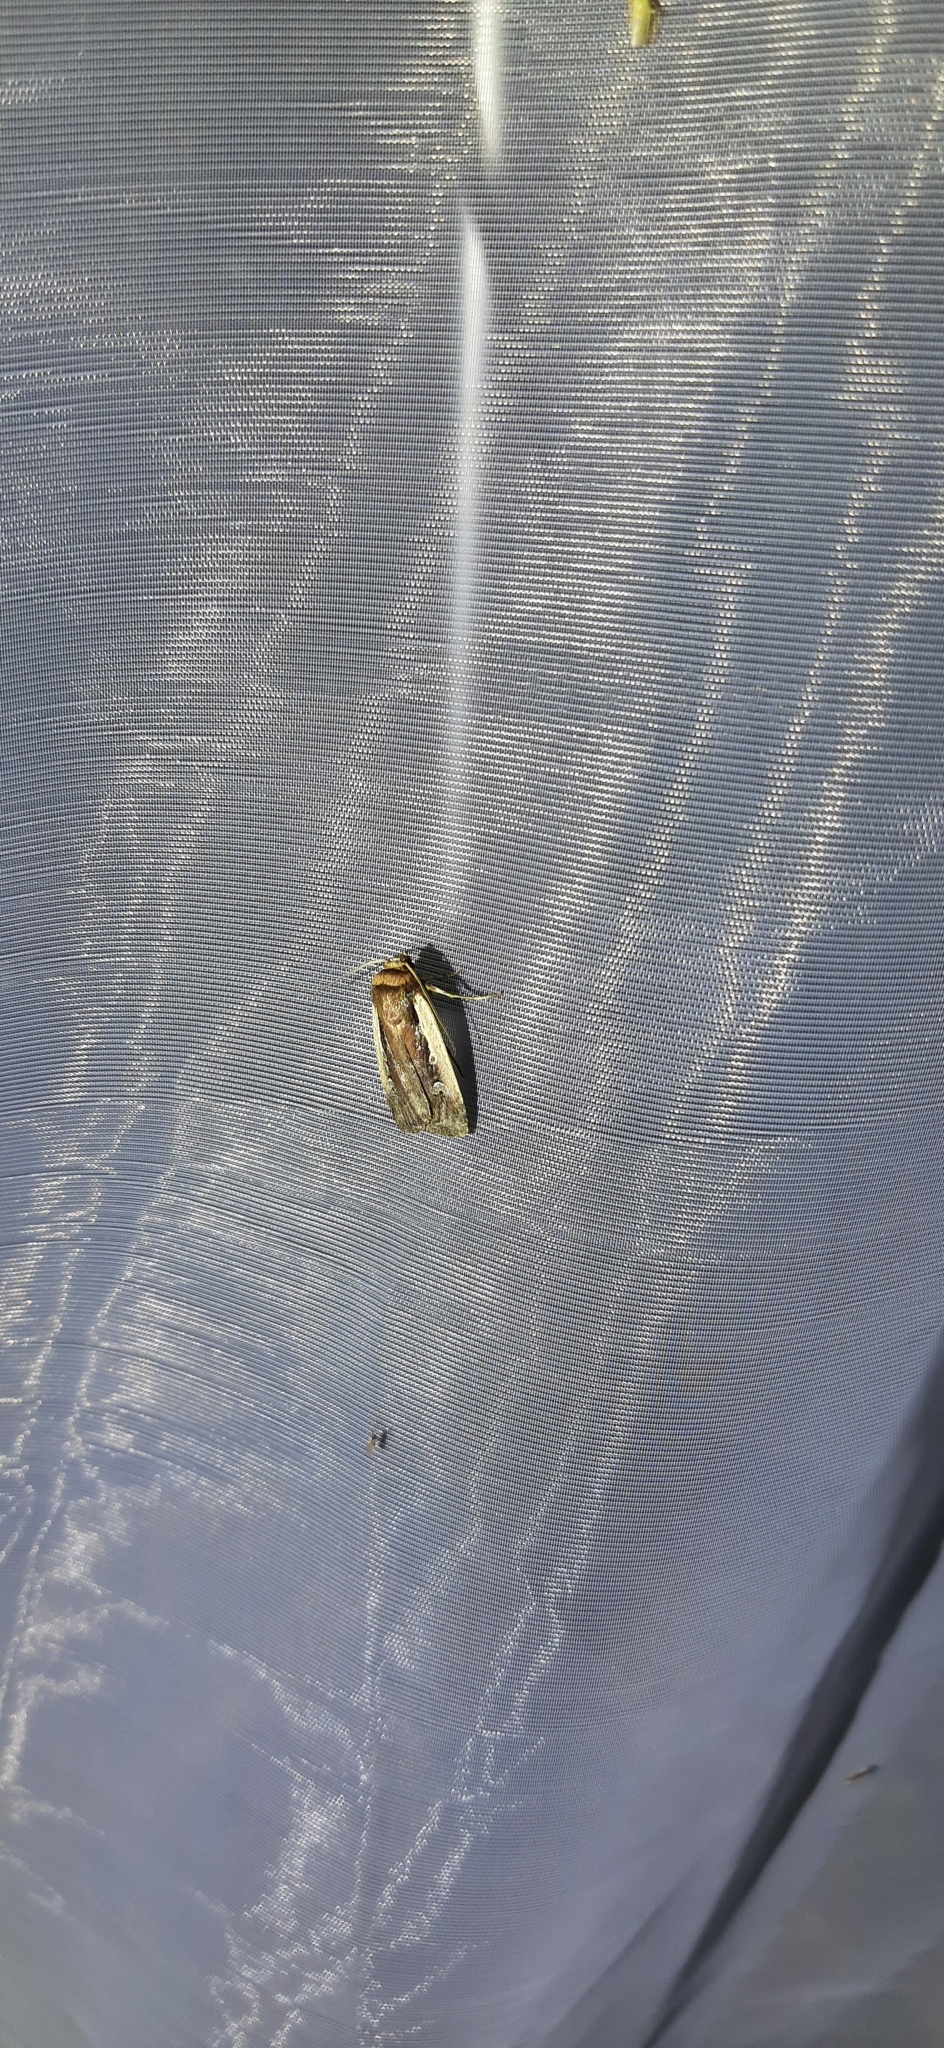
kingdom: Animalia
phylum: Arthropoda
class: Insecta
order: Lepidoptera
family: Noctuidae
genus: Ochropleura
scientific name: Ochropleura plecta
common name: Flame shoulder
